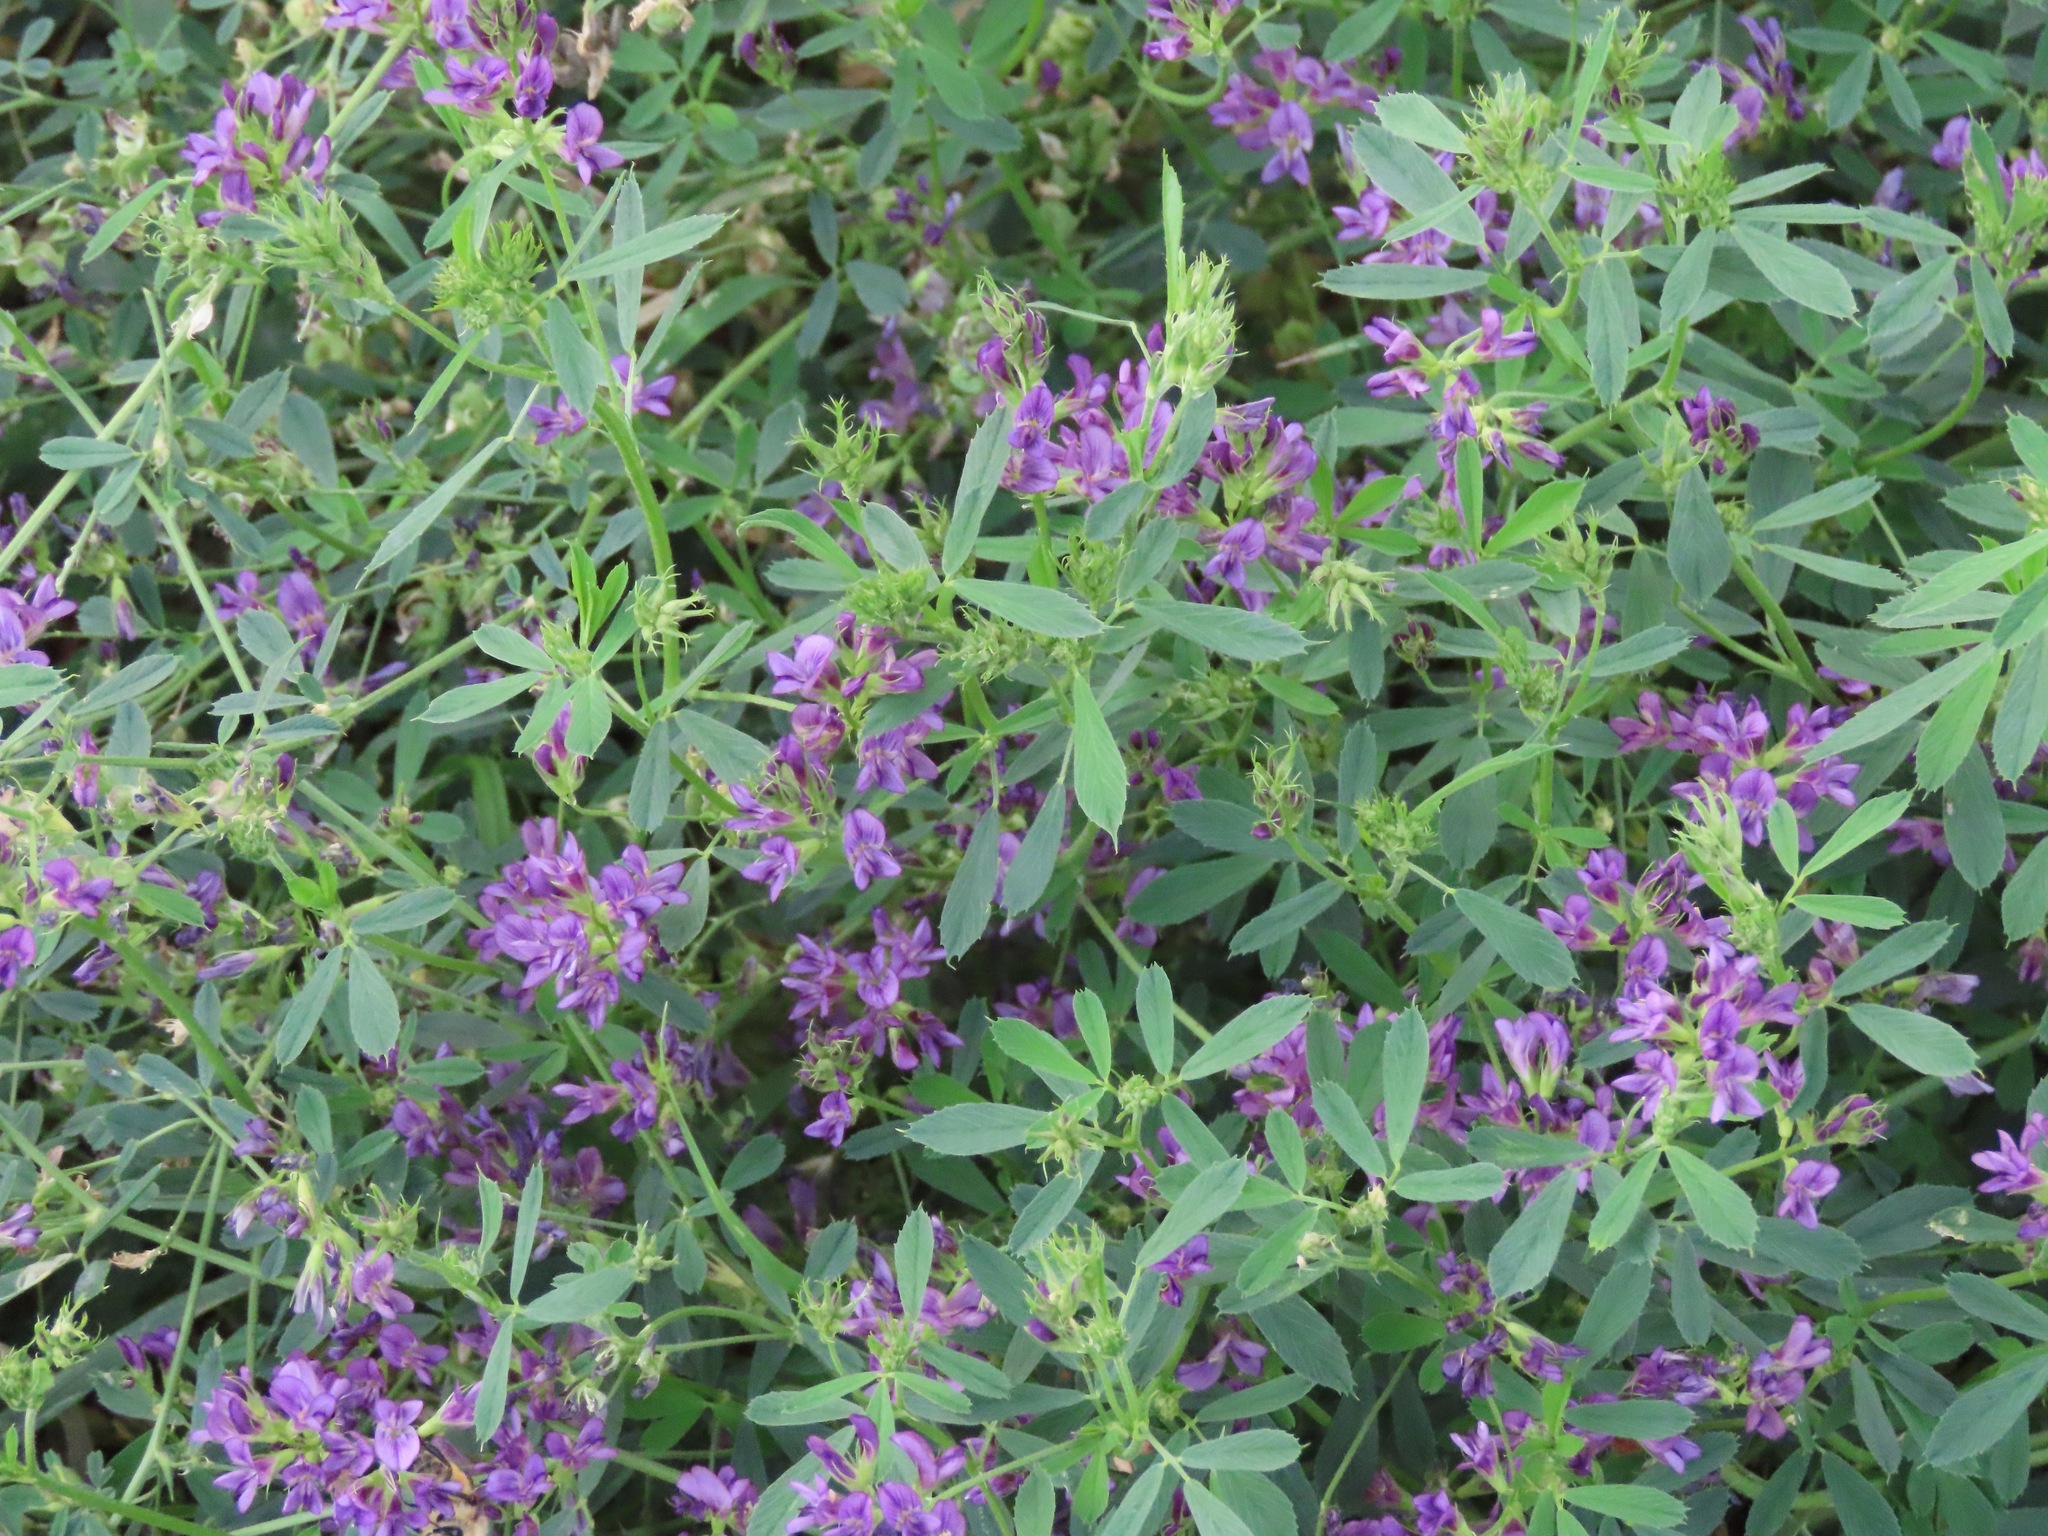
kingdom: Plantae
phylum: Tracheophyta
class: Magnoliopsida
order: Fabales
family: Fabaceae
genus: Medicago
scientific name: Medicago sativa
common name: Alfalfa
